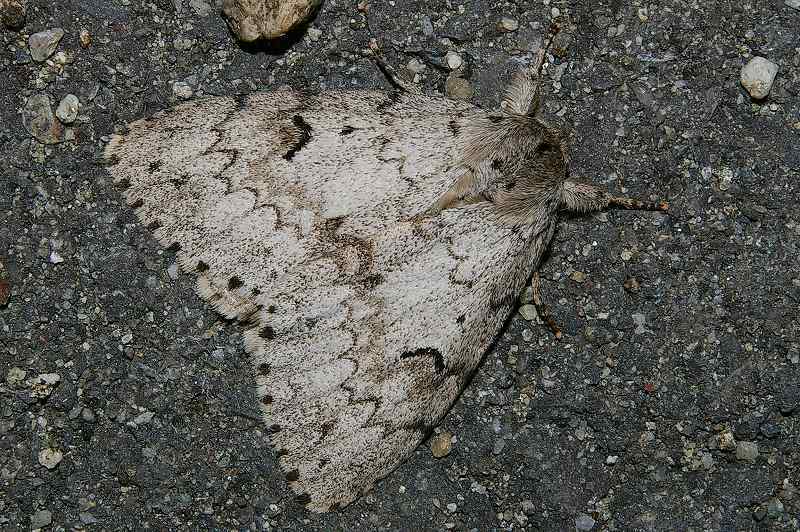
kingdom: Animalia
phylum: Arthropoda
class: Insecta
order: Lepidoptera
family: Erebidae
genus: Lymantria
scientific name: Lymantria lucescens
